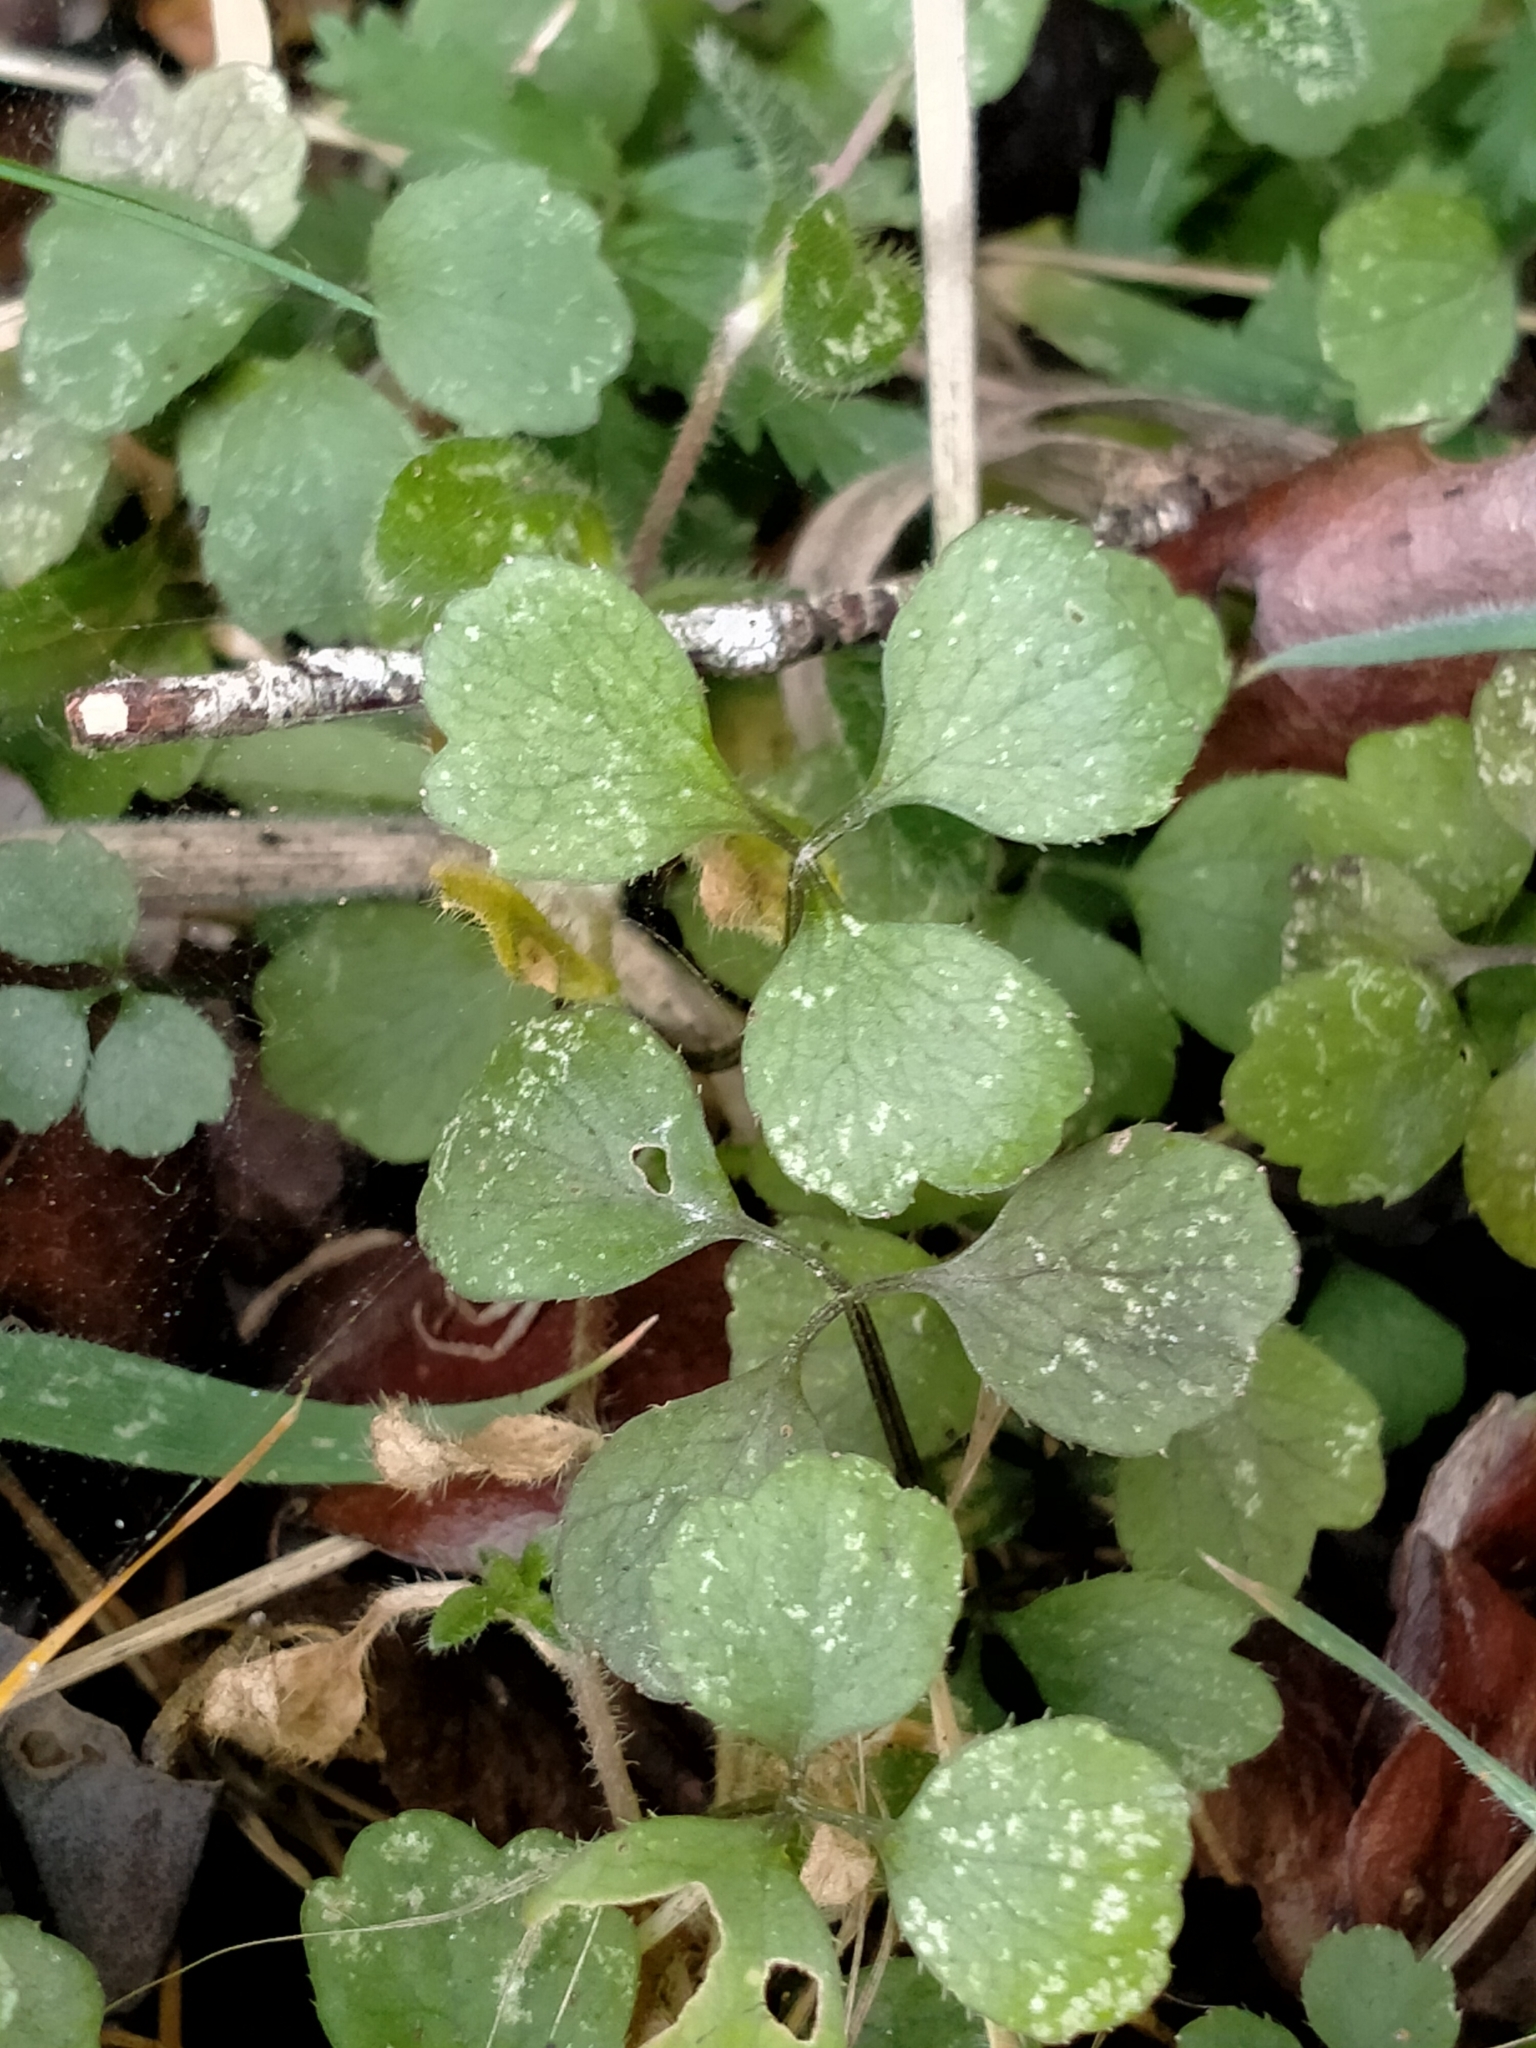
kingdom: Plantae
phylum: Tracheophyta
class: Magnoliopsida
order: Apiales
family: Apiaceae
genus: Azorella
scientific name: Azorella hookeri
